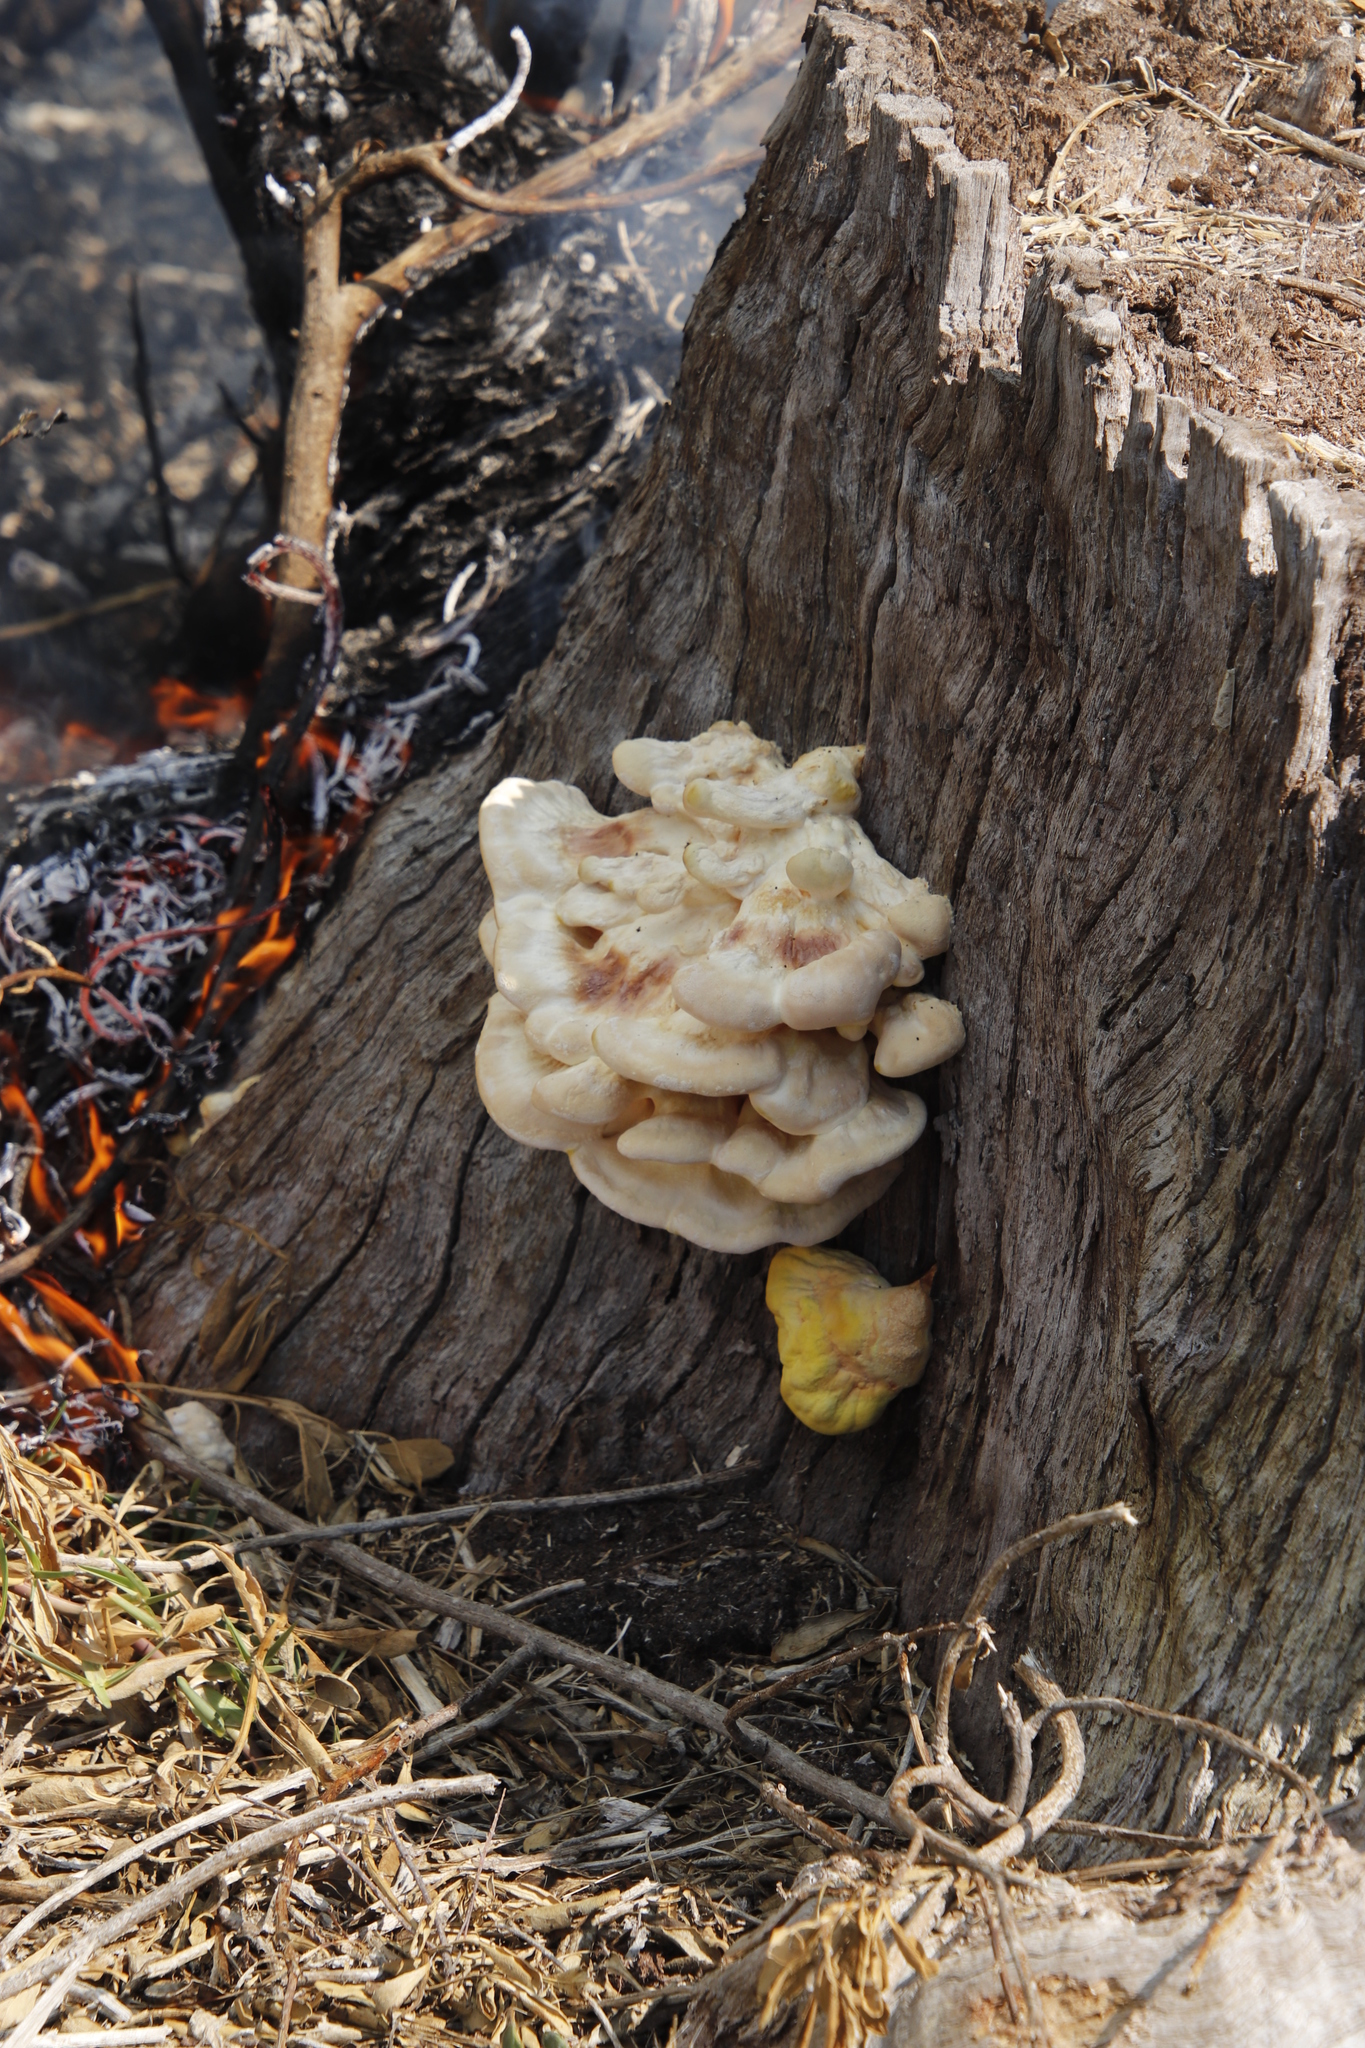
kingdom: Fungi
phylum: Basidiomycota
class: Agaricomycetes
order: Polyporales
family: Laetiporaceae
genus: Laetiporus
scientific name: Laetiporus sulphureus
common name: Chicken of the woods
